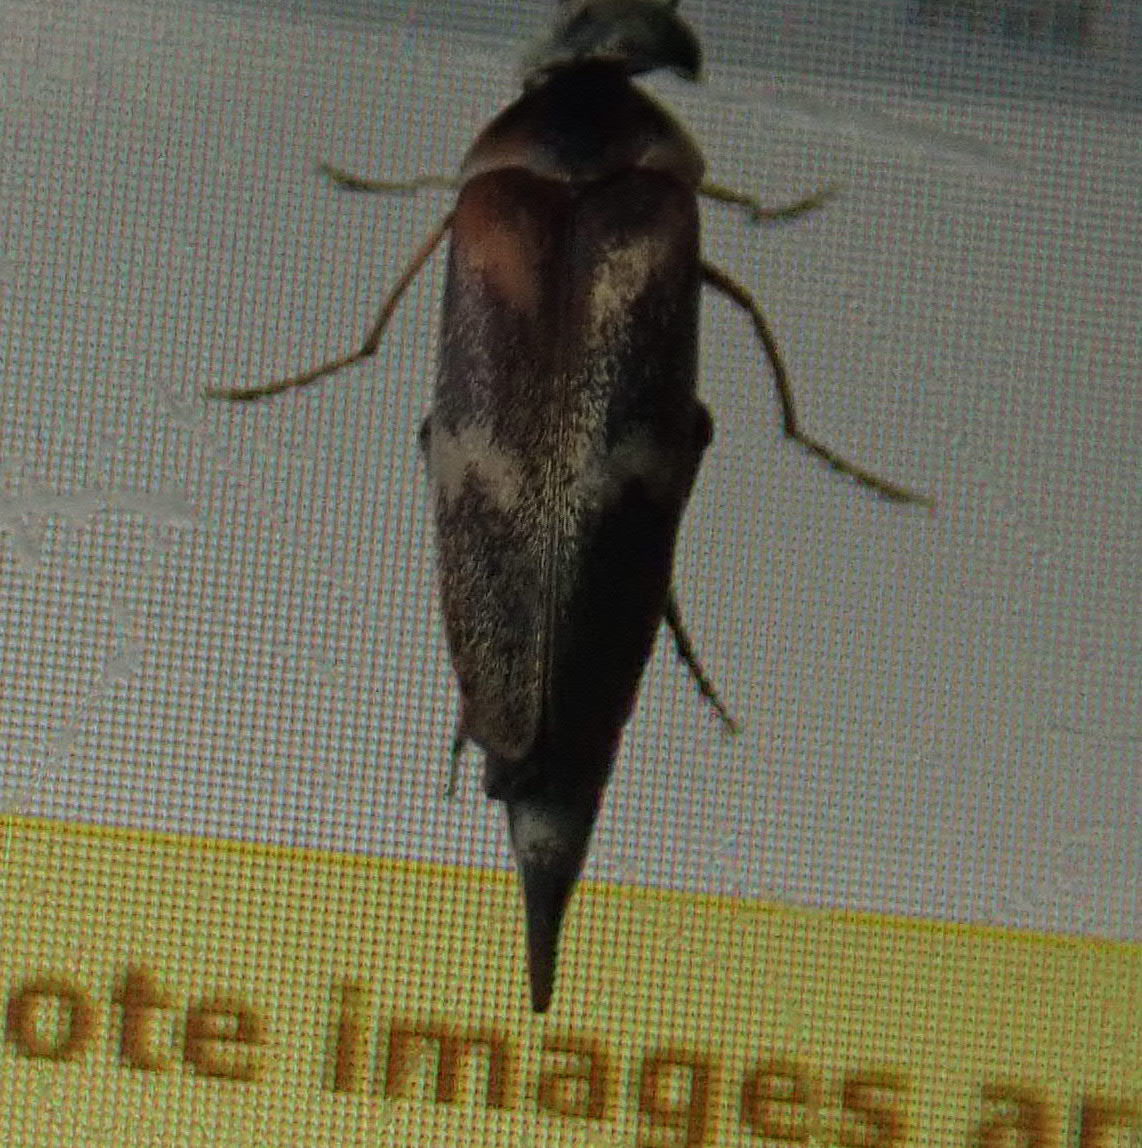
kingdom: Animalia
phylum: Arthropoda
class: Insecta
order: Coleoptera
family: Mordellidae
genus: Tolidopalpus
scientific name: Tolidopalpus
